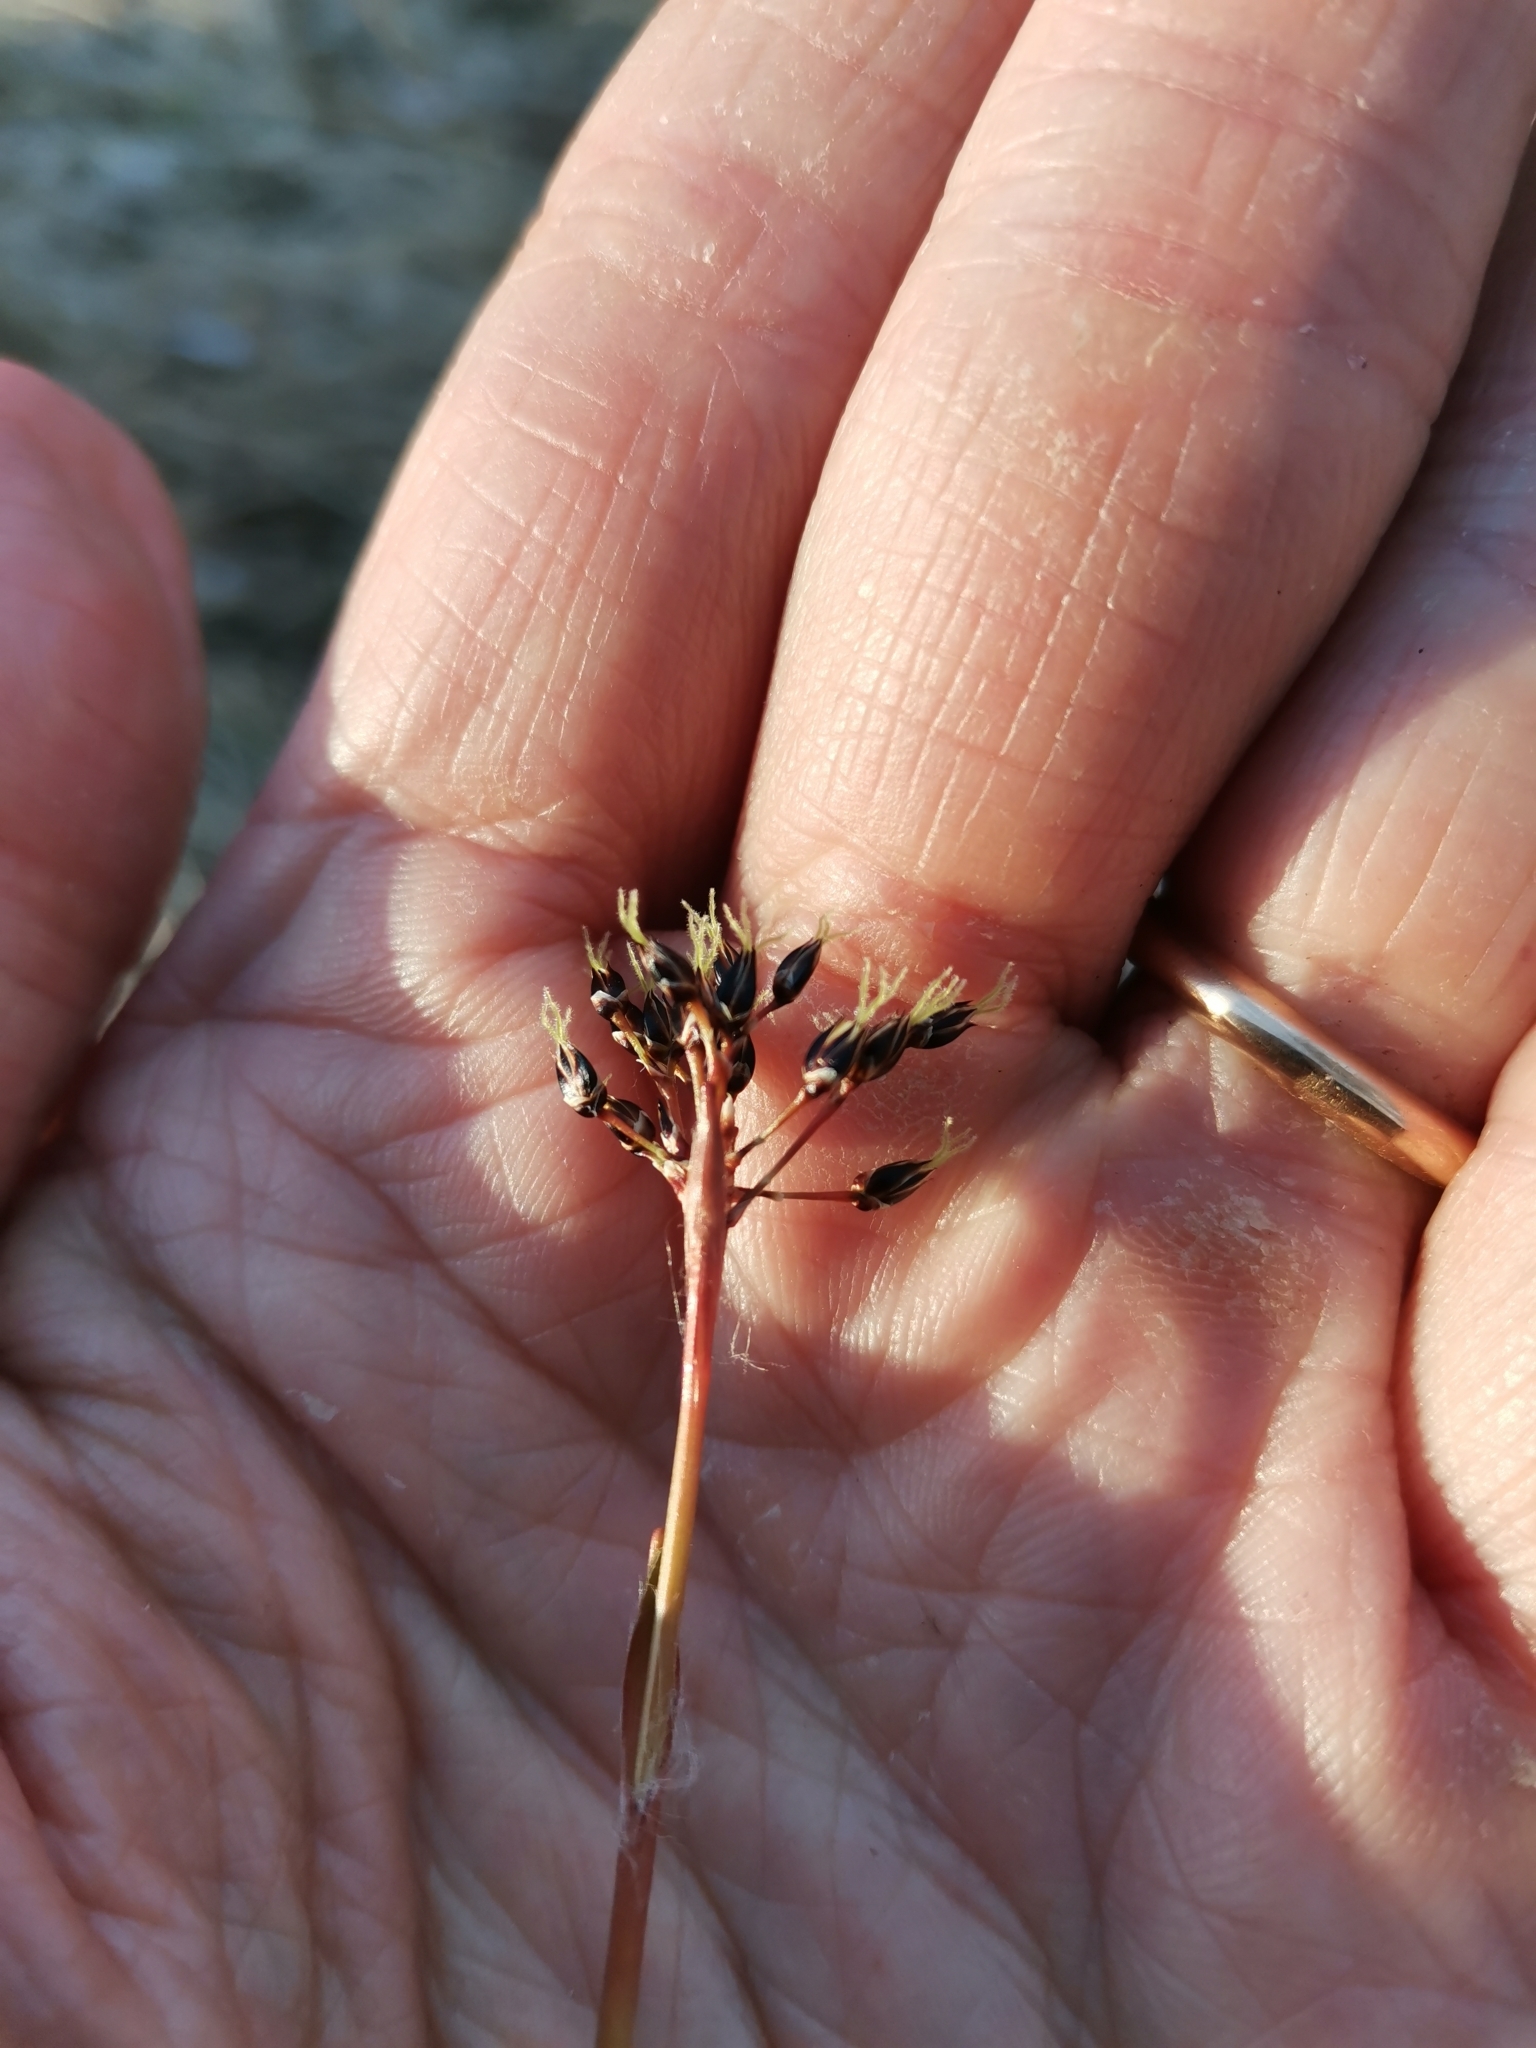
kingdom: Plantae
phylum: Tracheophyta
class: Liliopsida
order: Poales
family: Juncaceae
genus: Luzula
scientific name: Luzula pilosa
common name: Hairy wood-rush
